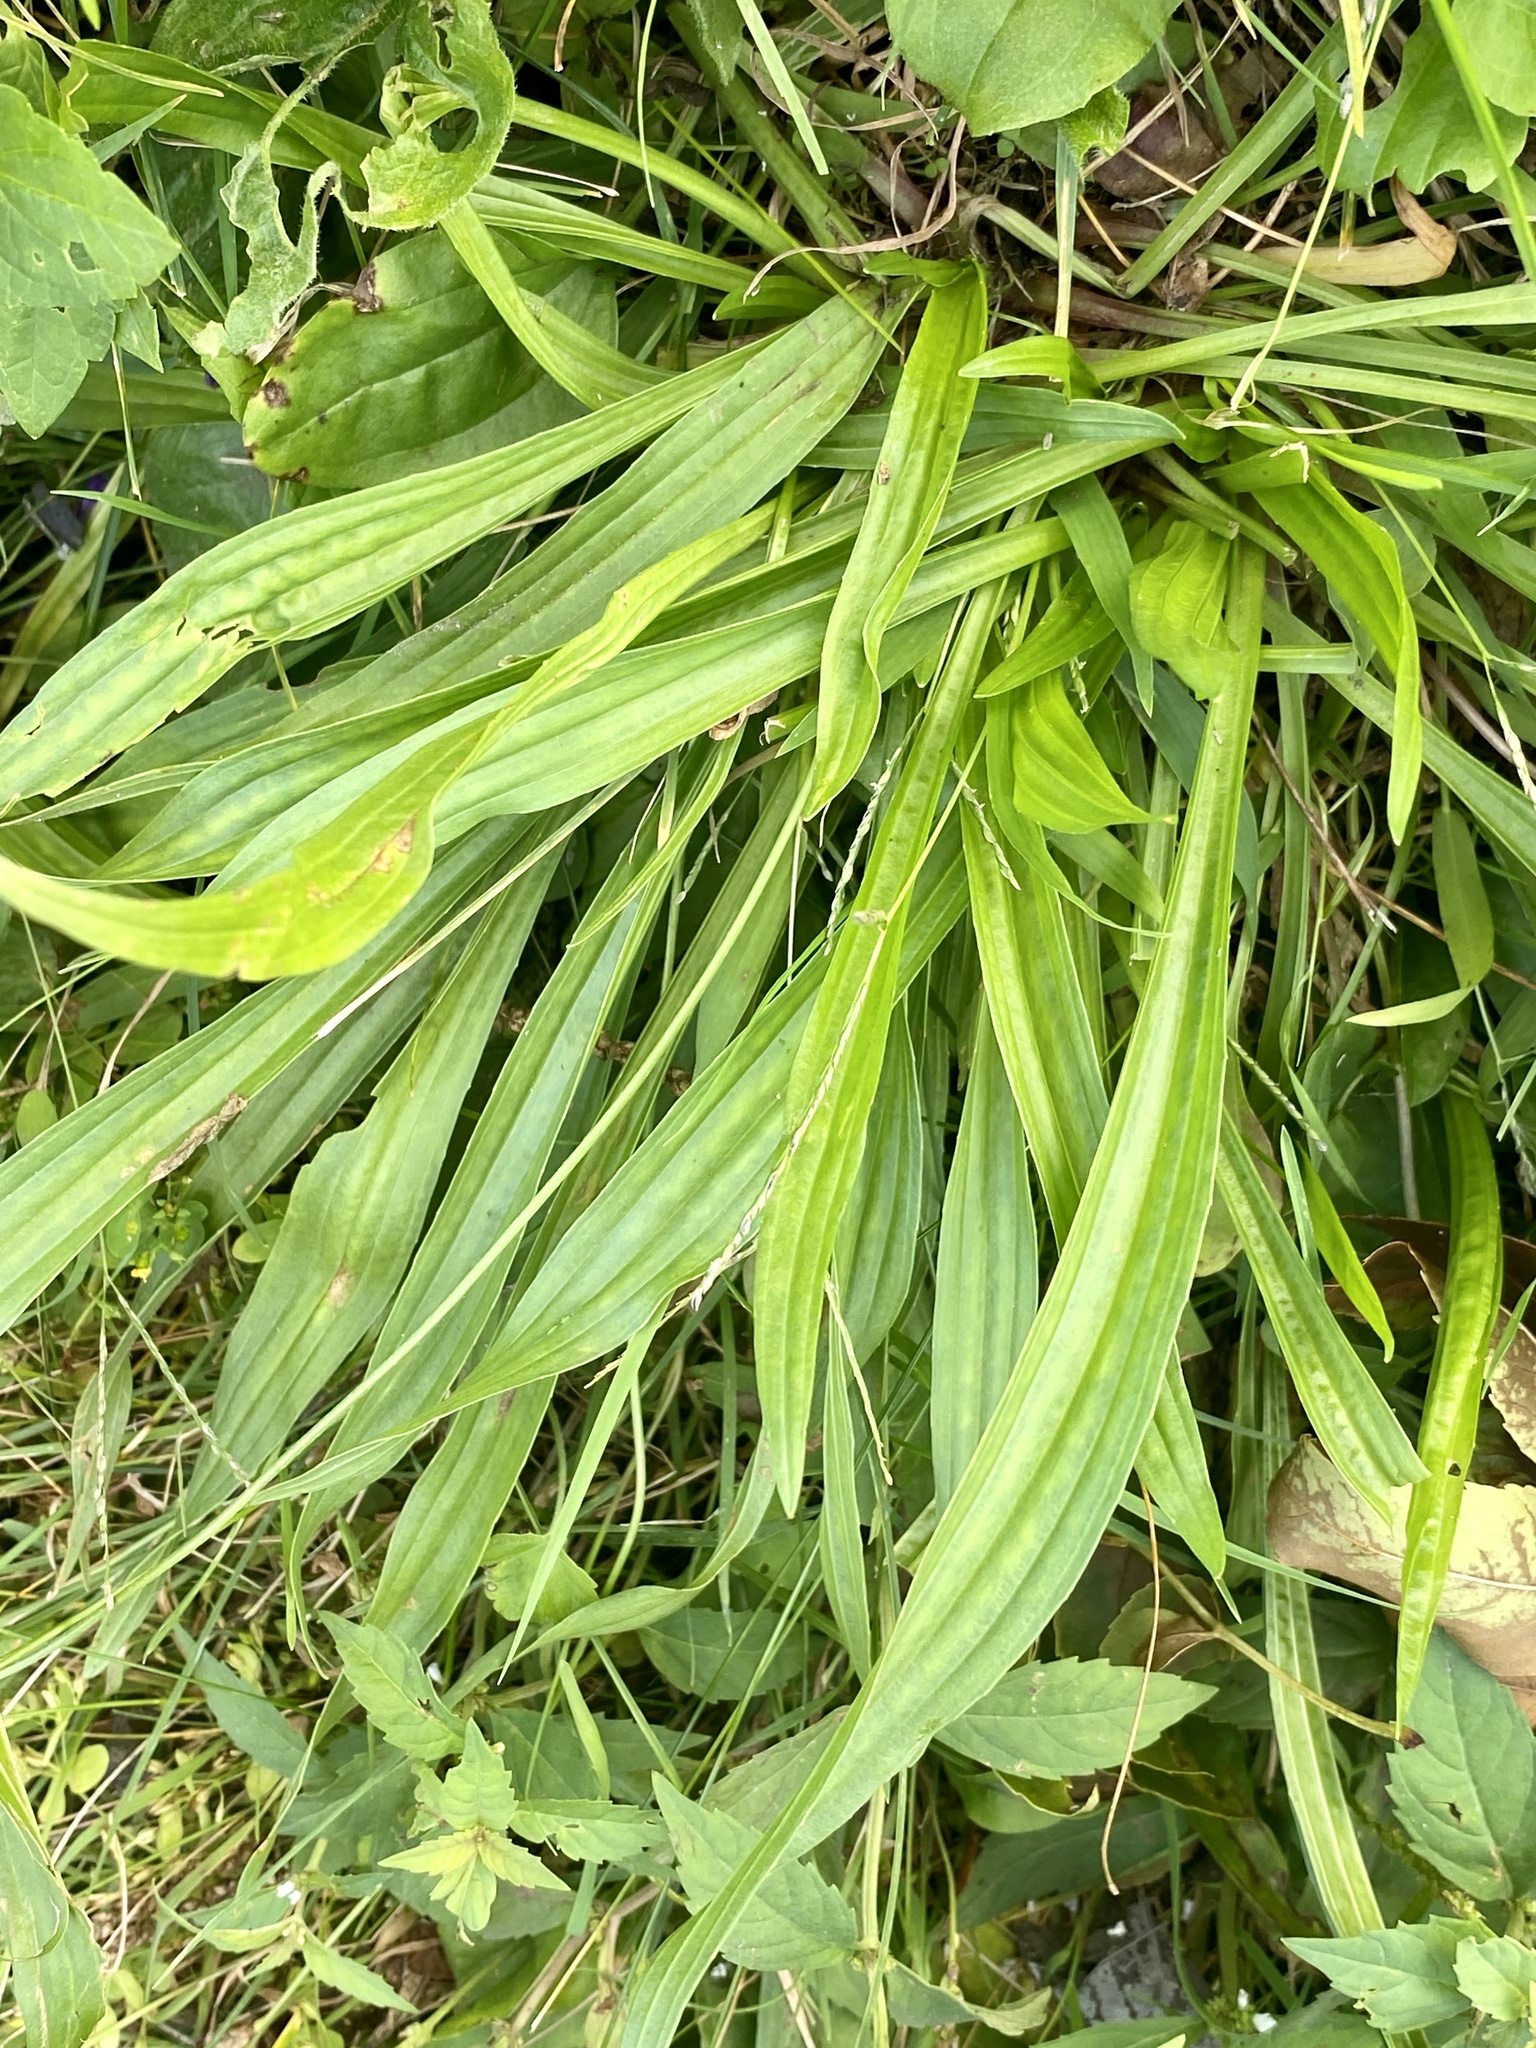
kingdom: Plantae
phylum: Tracheophyta
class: Magnoliopsida
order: Lamiales
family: Plantaginaceae
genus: Plantago
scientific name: Plantago lanceolata
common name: Ribwort plantain
